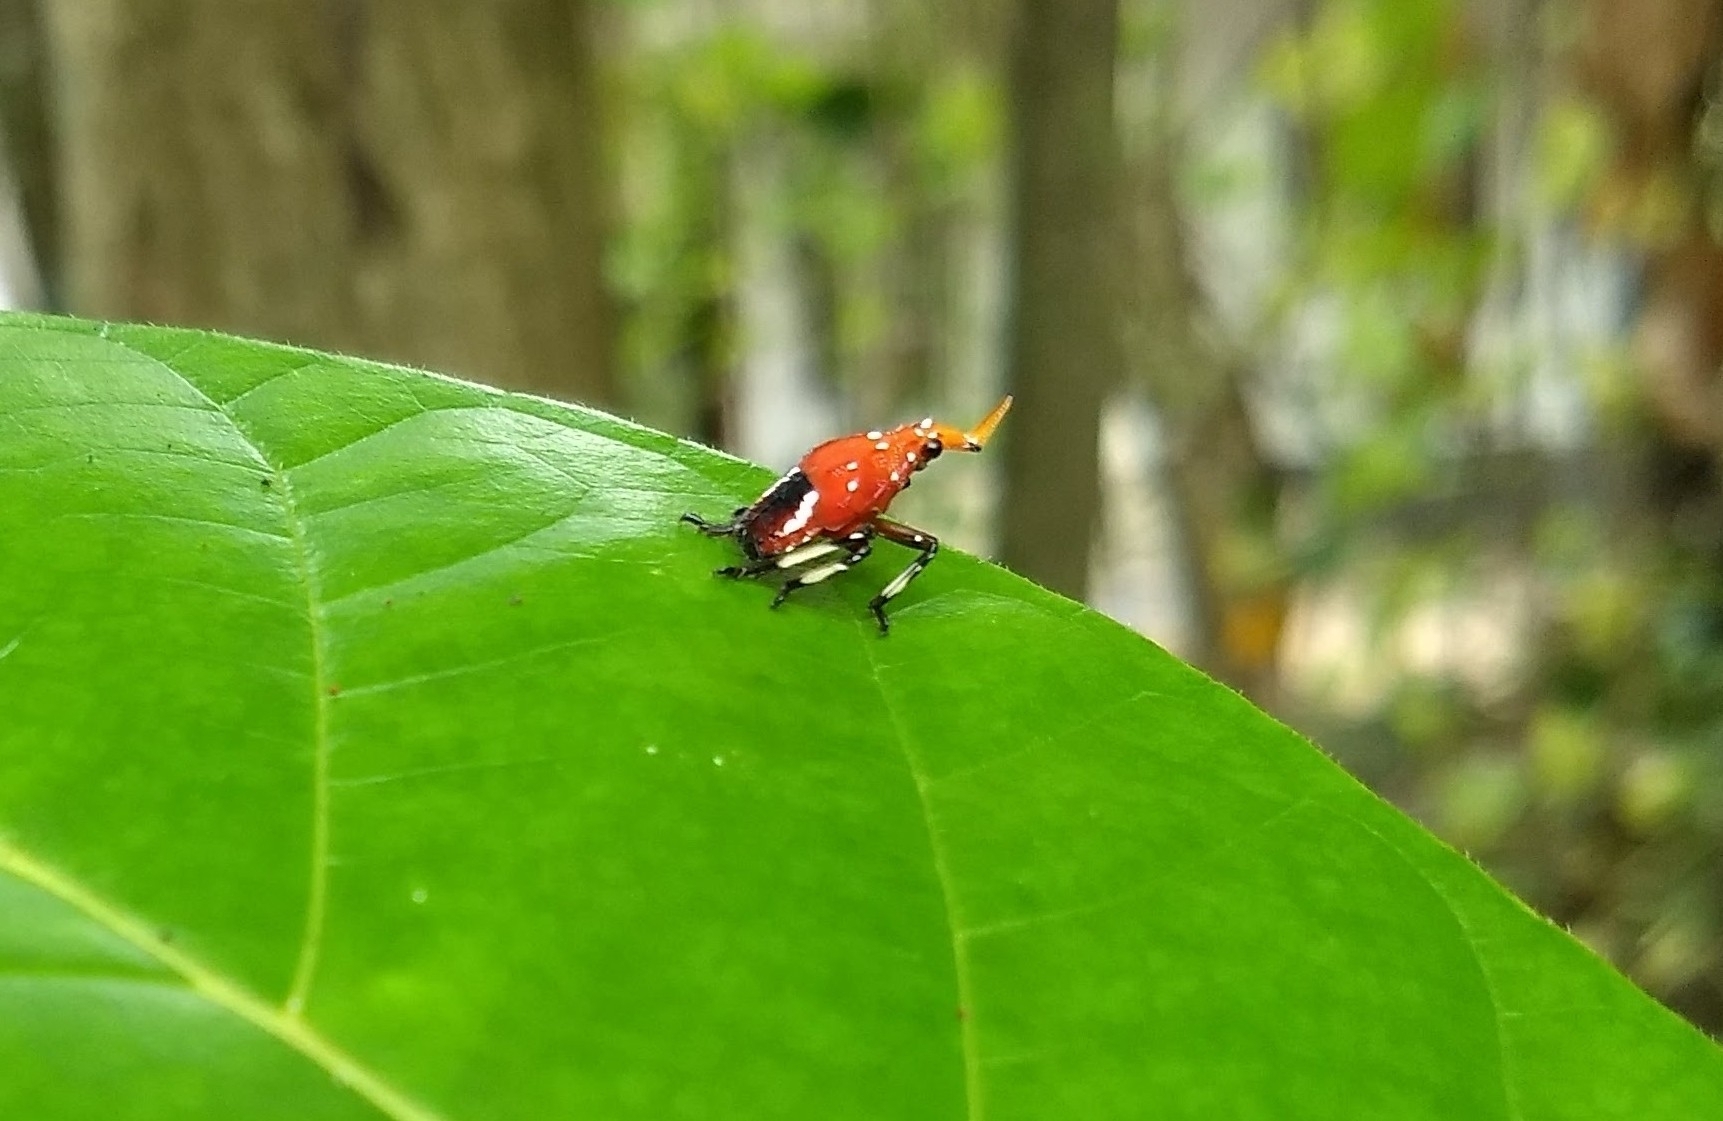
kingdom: Animalia
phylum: Arthropoda
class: Insecta
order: Hemiptera
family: Fulgoridae
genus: Kalidasa
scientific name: Kalidasa lanata
